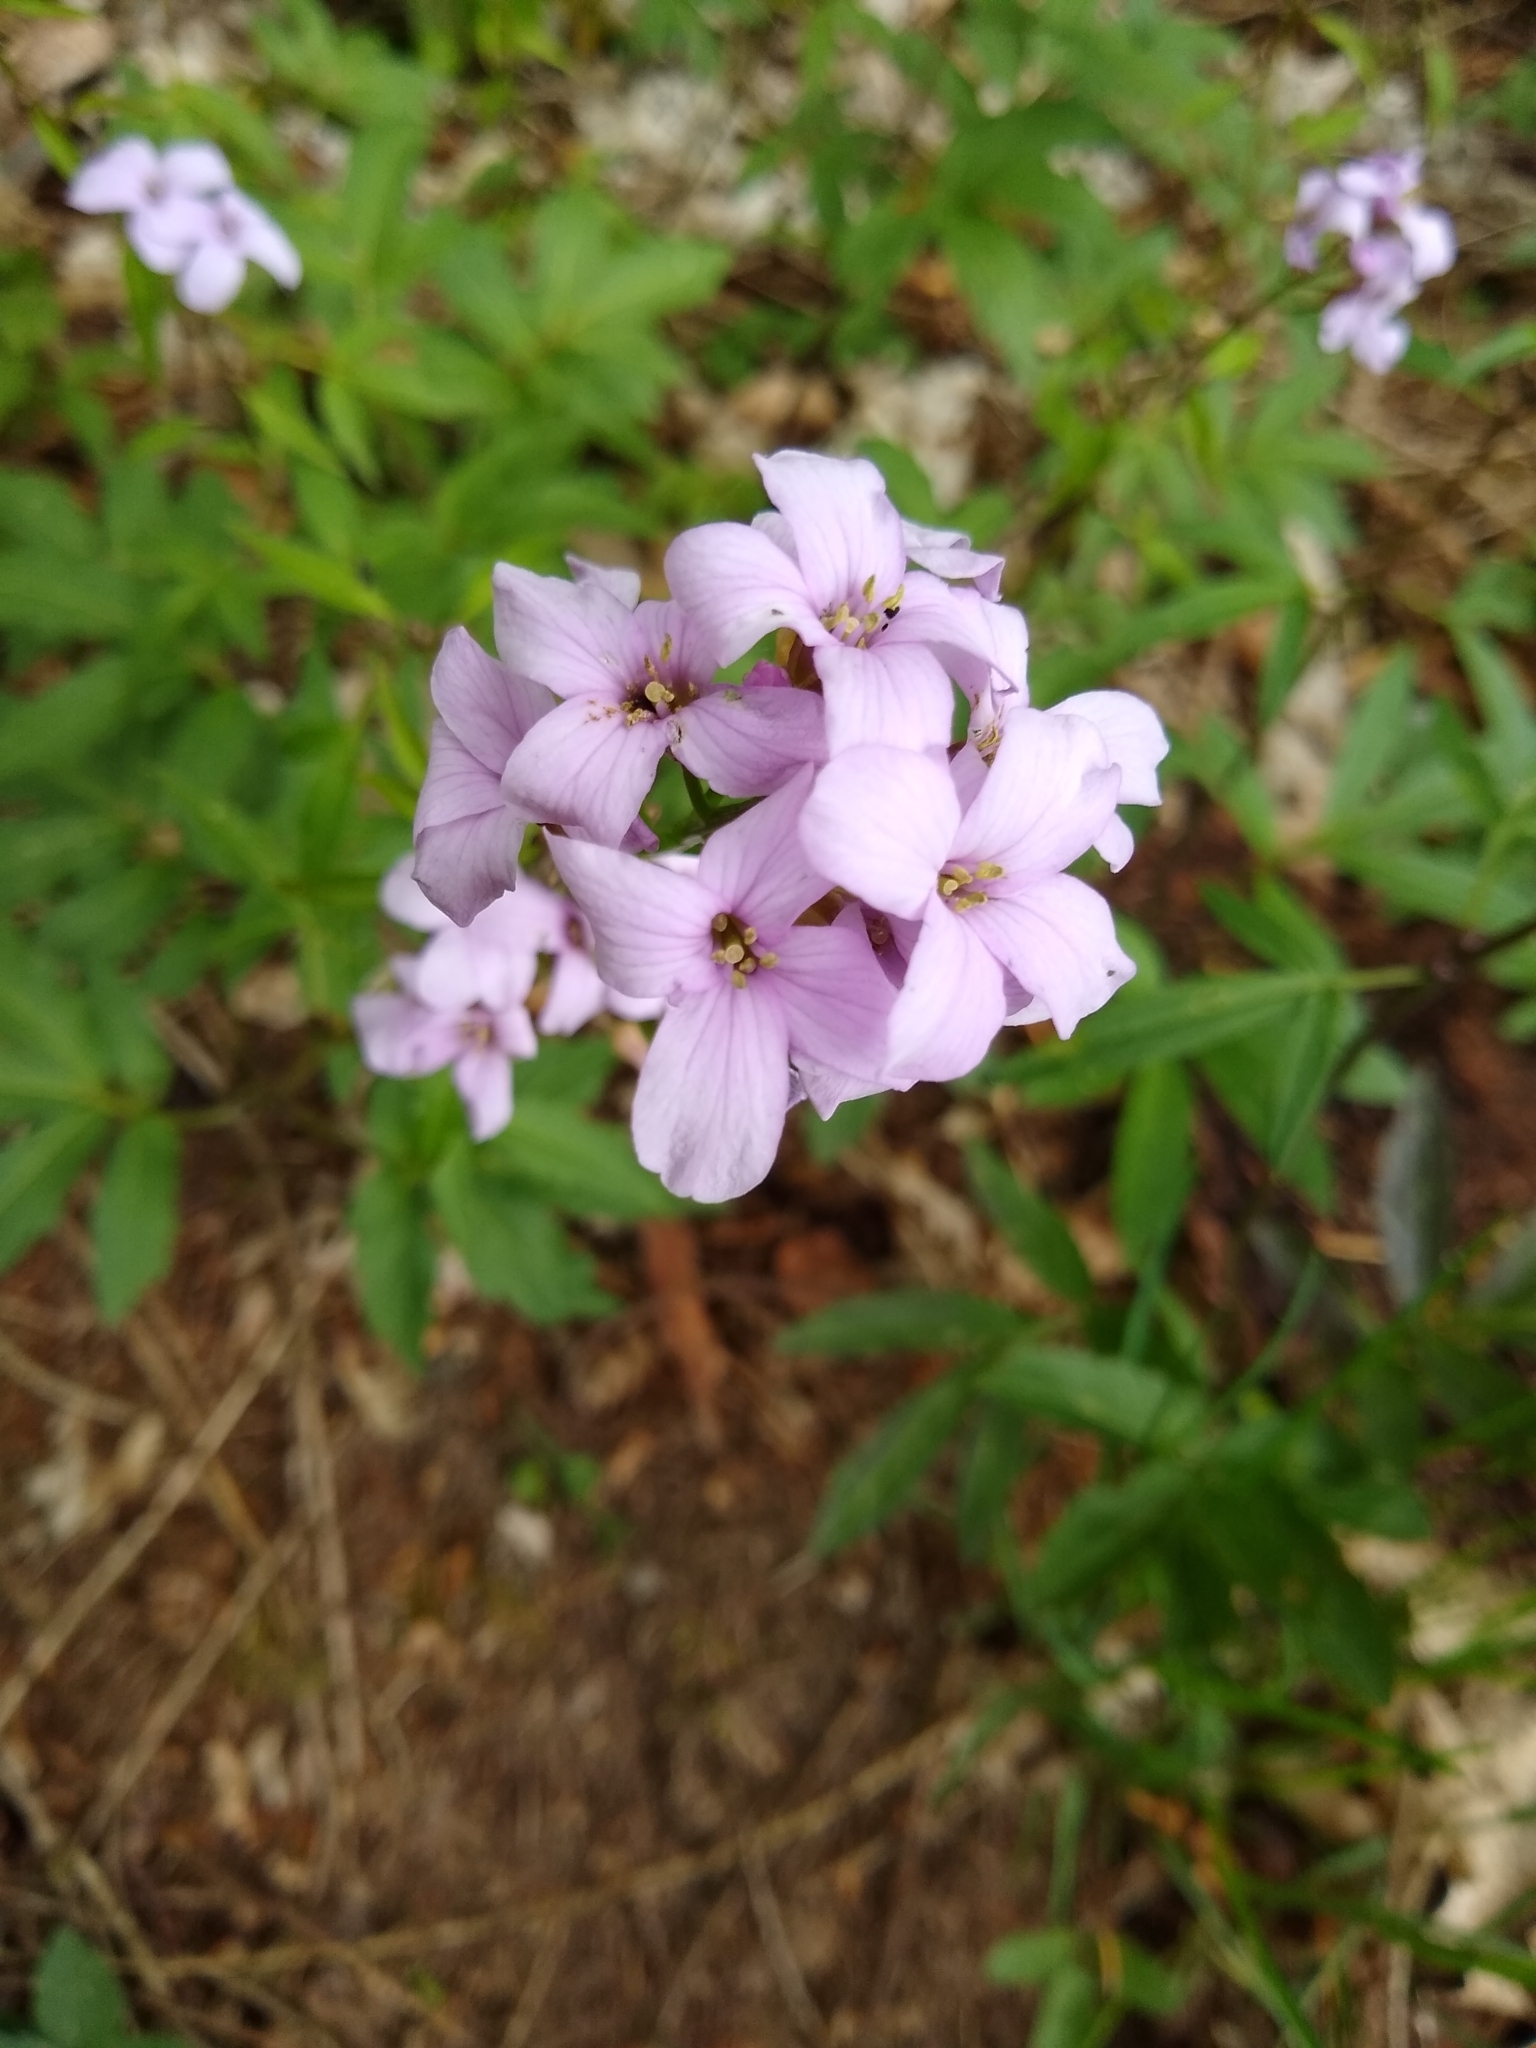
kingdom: Plantae
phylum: Tracheophyta
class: Magnoliopsida
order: Brassicales
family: Brassicaceae
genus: Cardamine
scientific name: Cardamine bulbifera
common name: Coralroot bittercress
